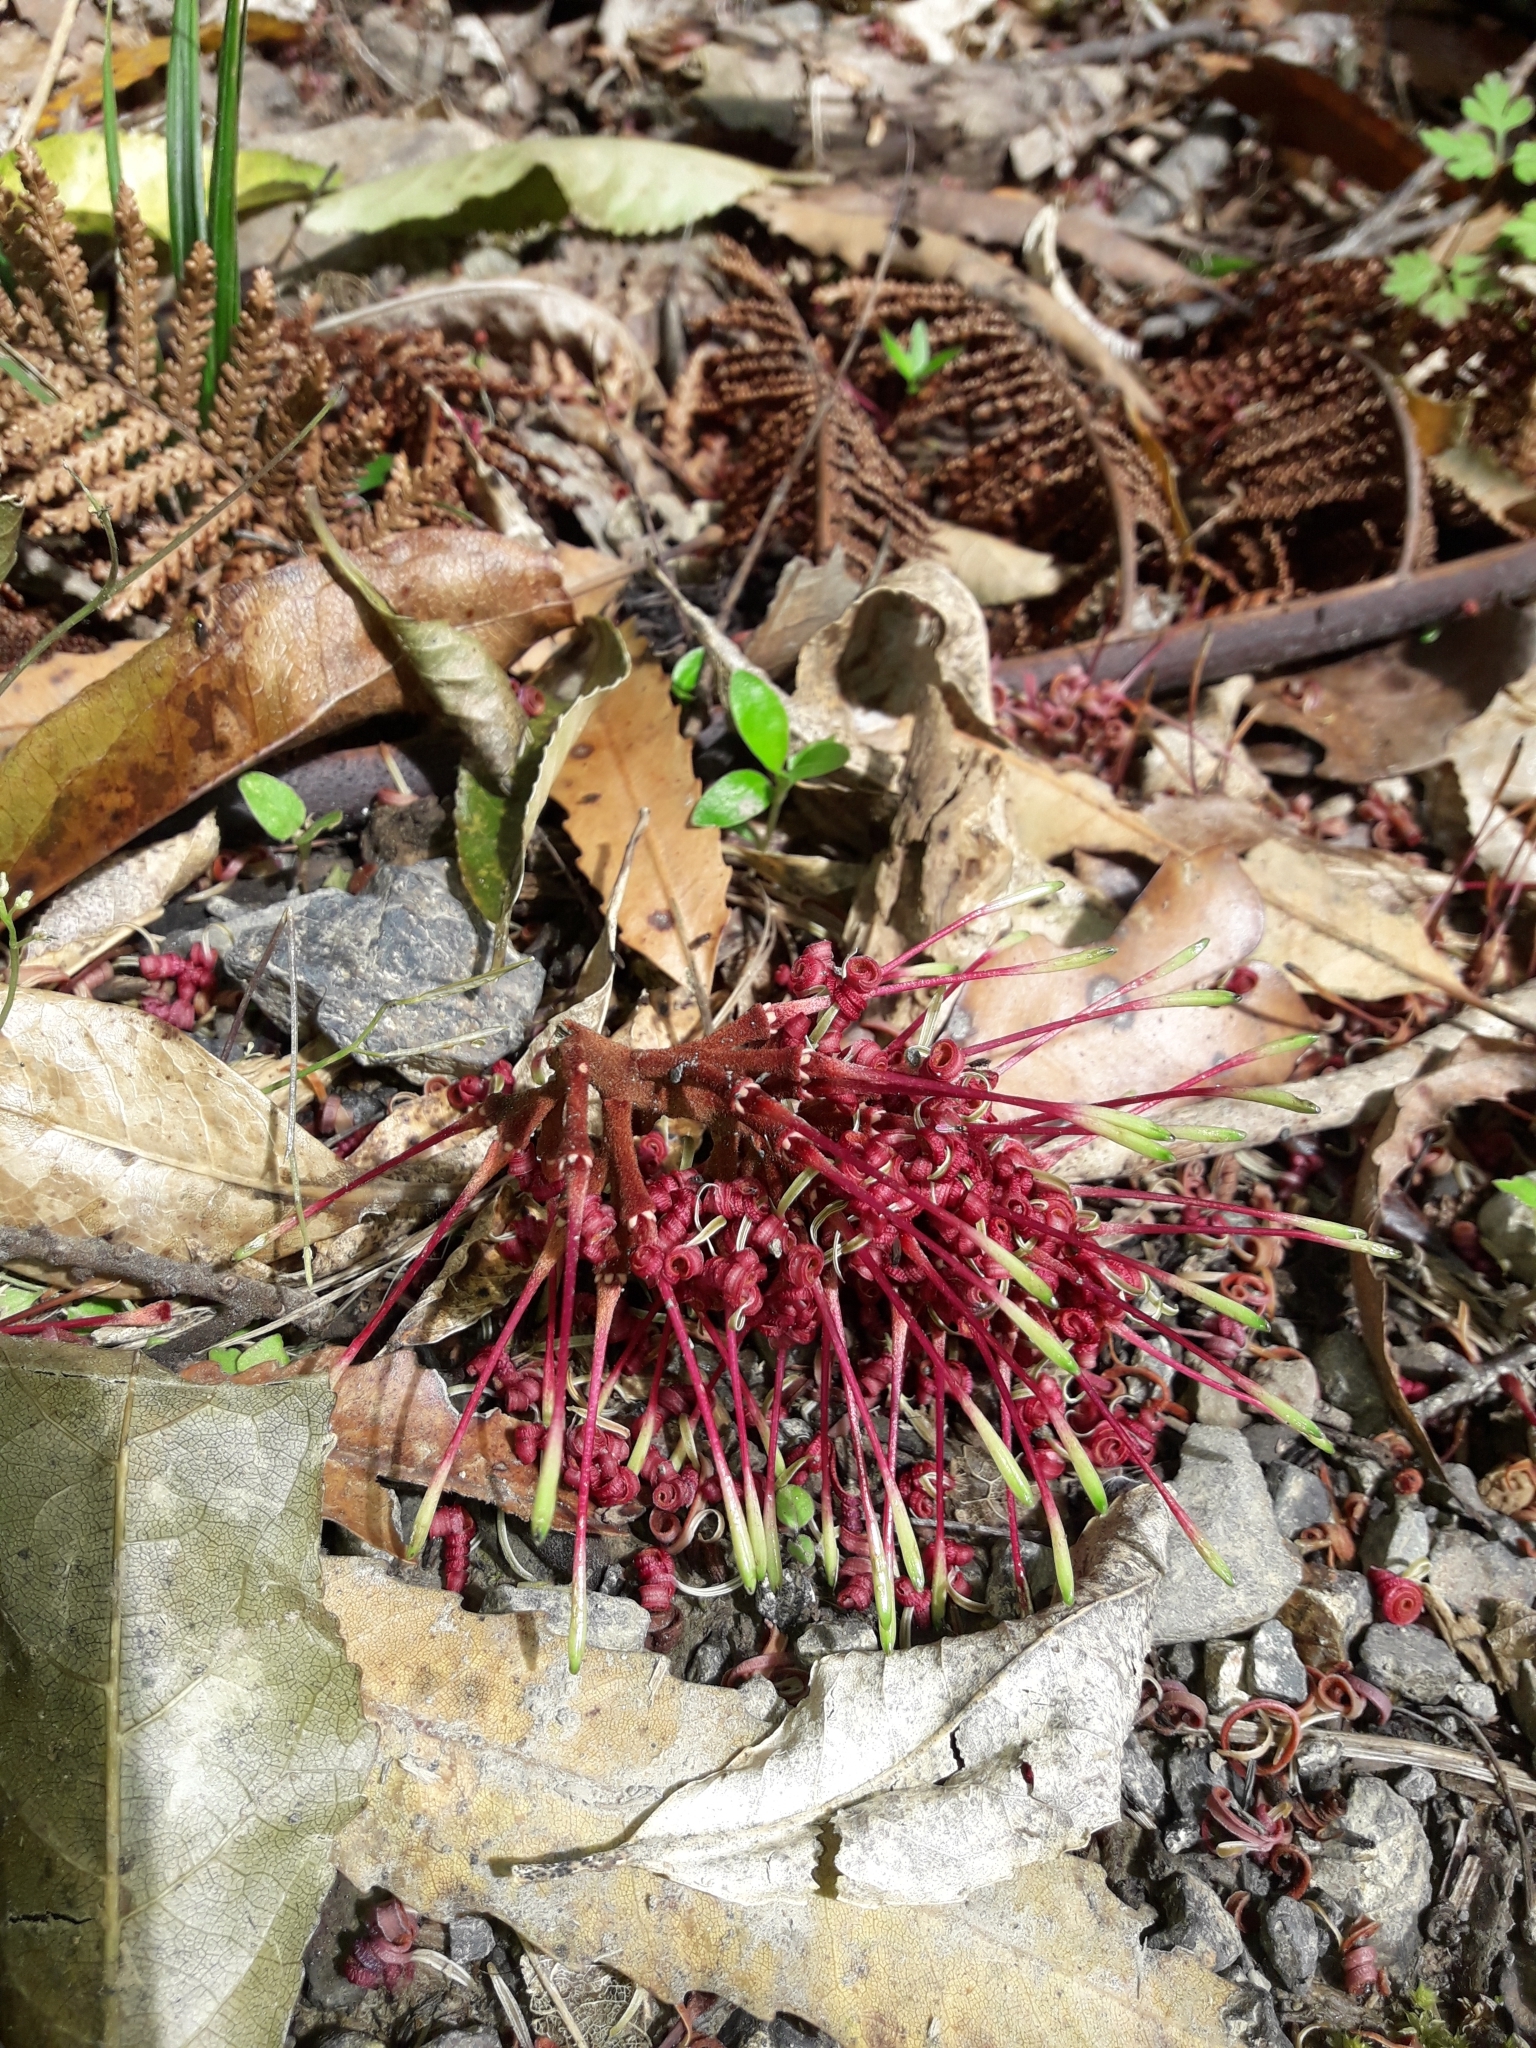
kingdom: Plantae
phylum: Tracheophyta
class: Magnoliopsida
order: Proteales
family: Proteaceae
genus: Knightia
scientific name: Knightia excelsa
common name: New zealand-honeysuckle
